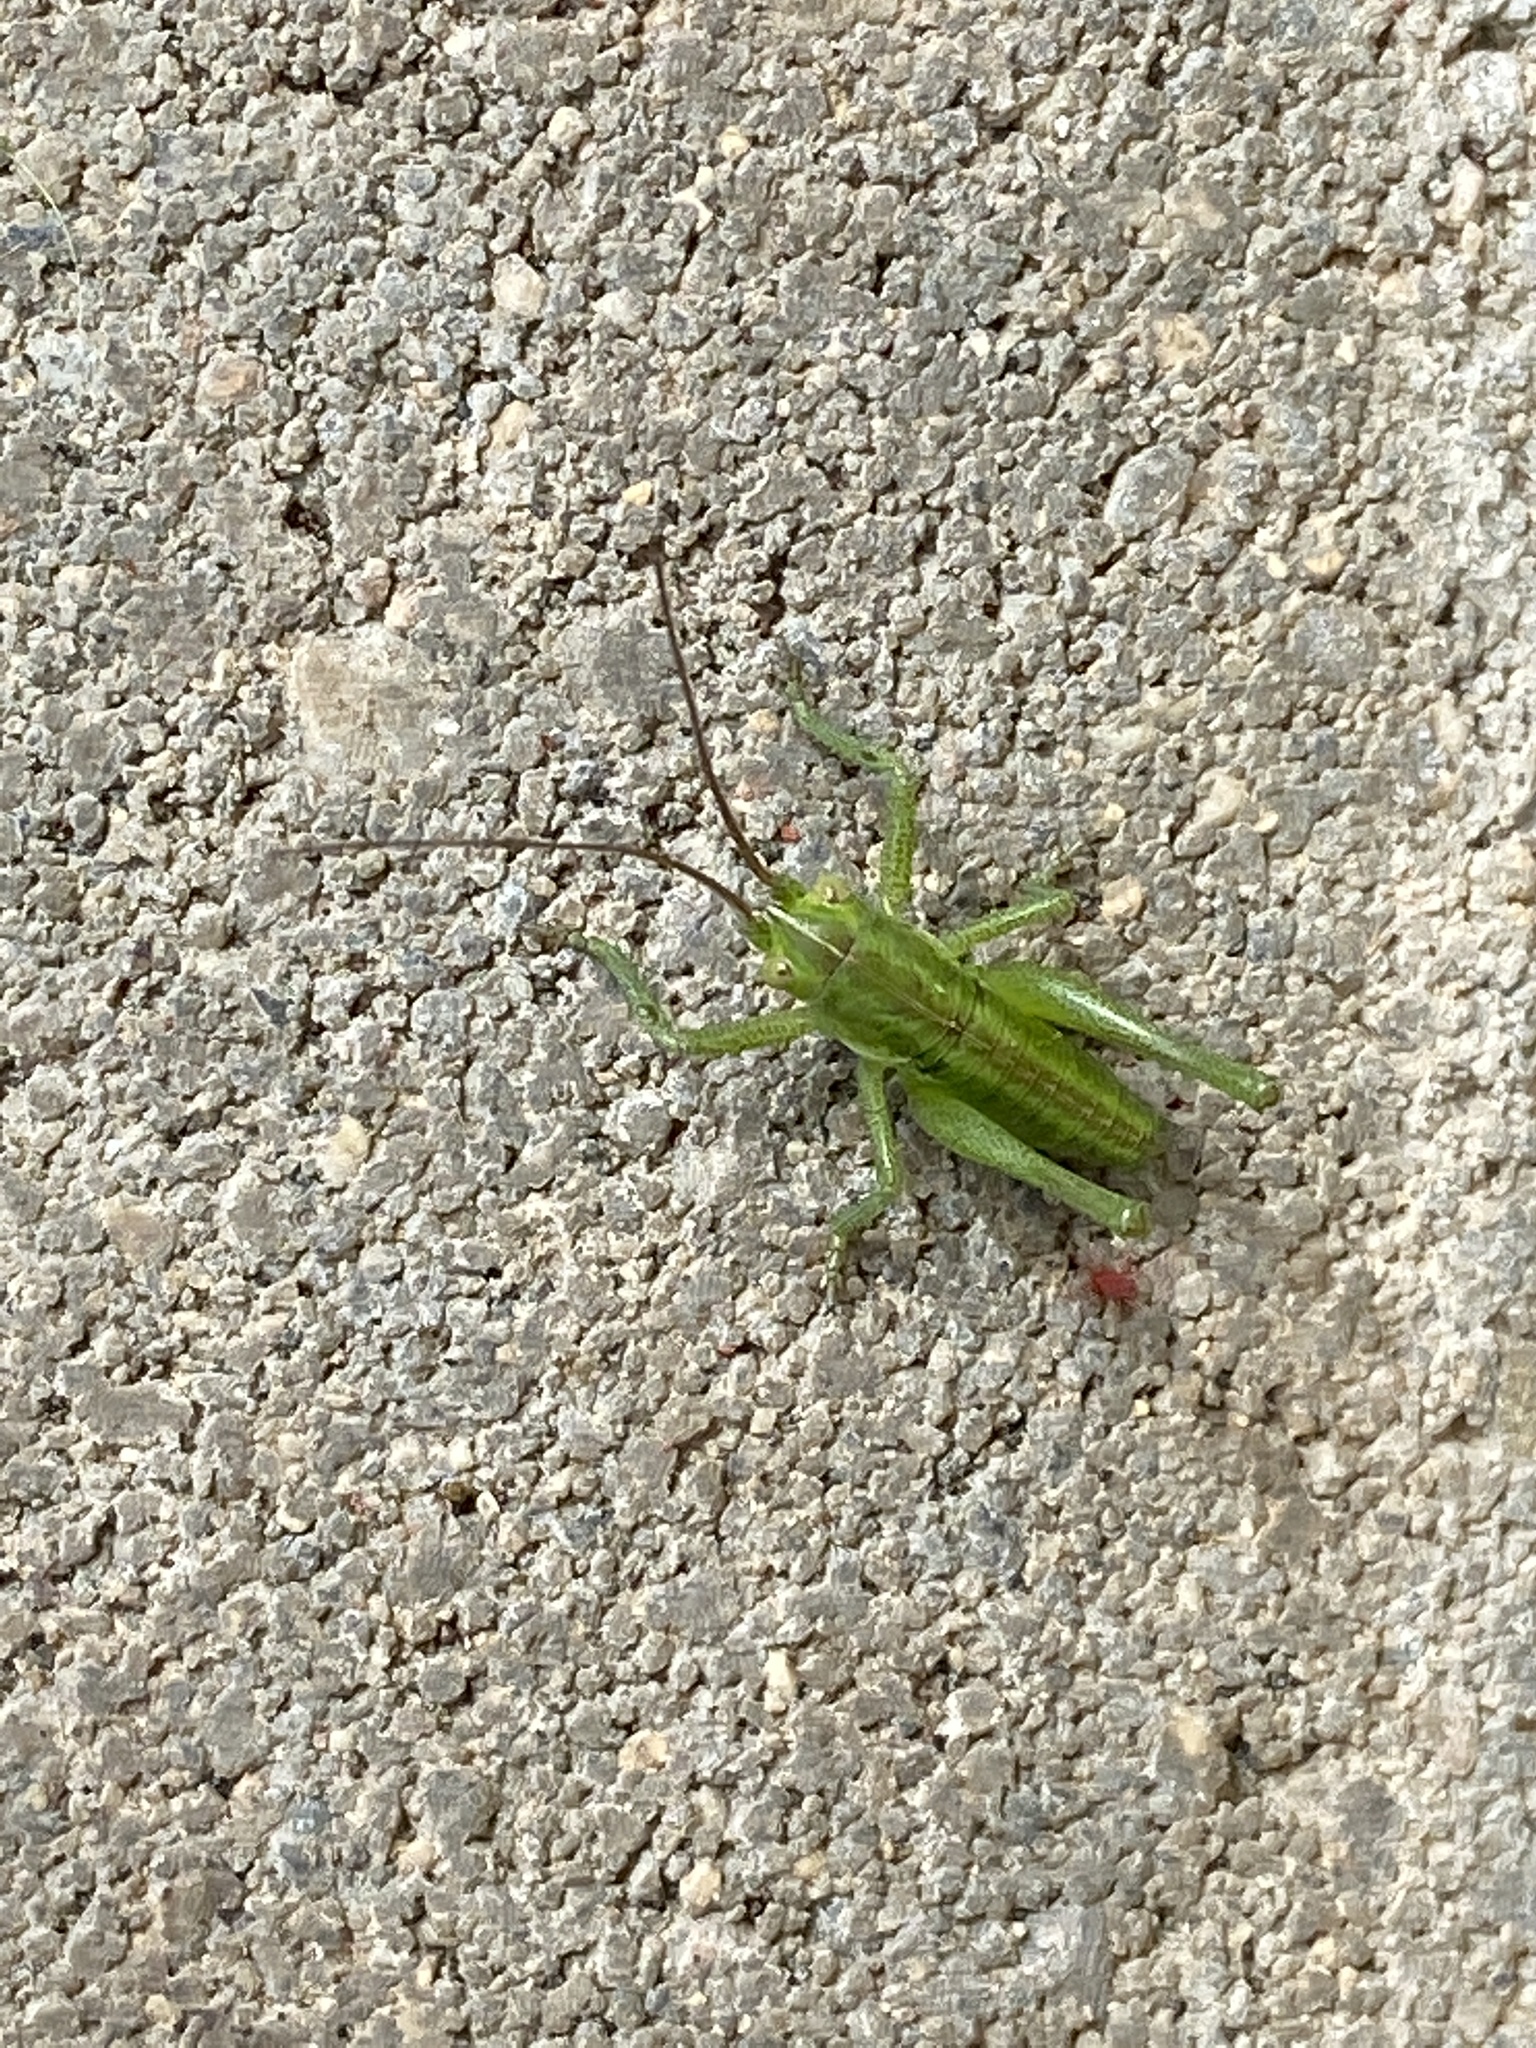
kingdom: Animalia
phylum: Arthropoda
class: Insecta
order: Orthoptera
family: Tettigoniidae
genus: Tettigonia
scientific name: Tettigonia viridissima
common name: Great green bush-cricket
